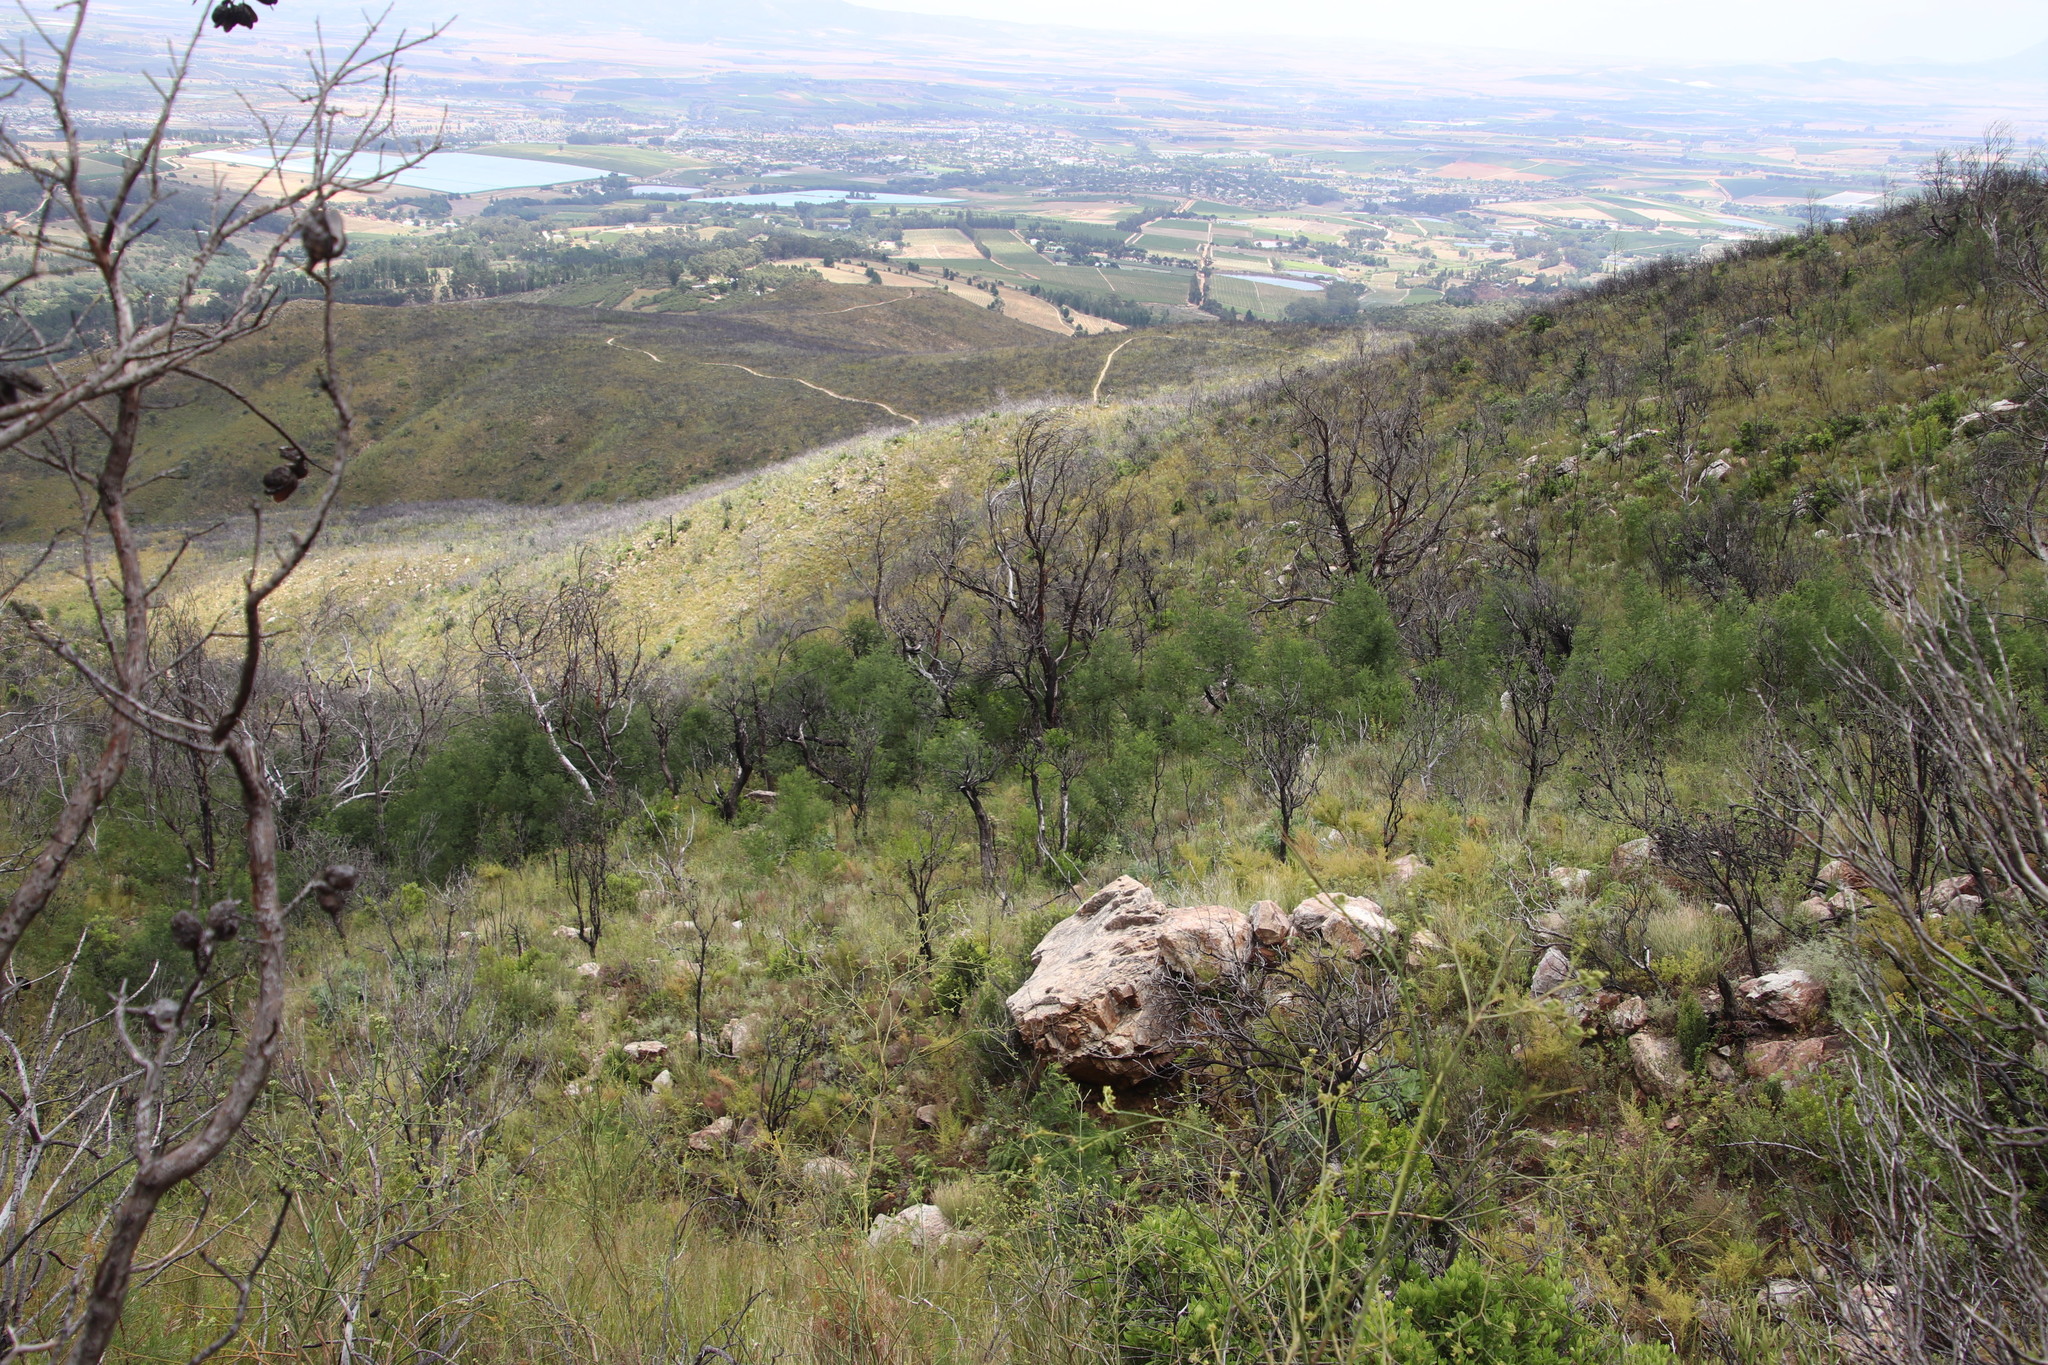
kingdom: Plantae
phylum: Tracheophyta
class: Magnoliopsida
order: Fabales
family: Fabaceae
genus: Acacia
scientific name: Acacia mearnsii
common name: Black wattle
